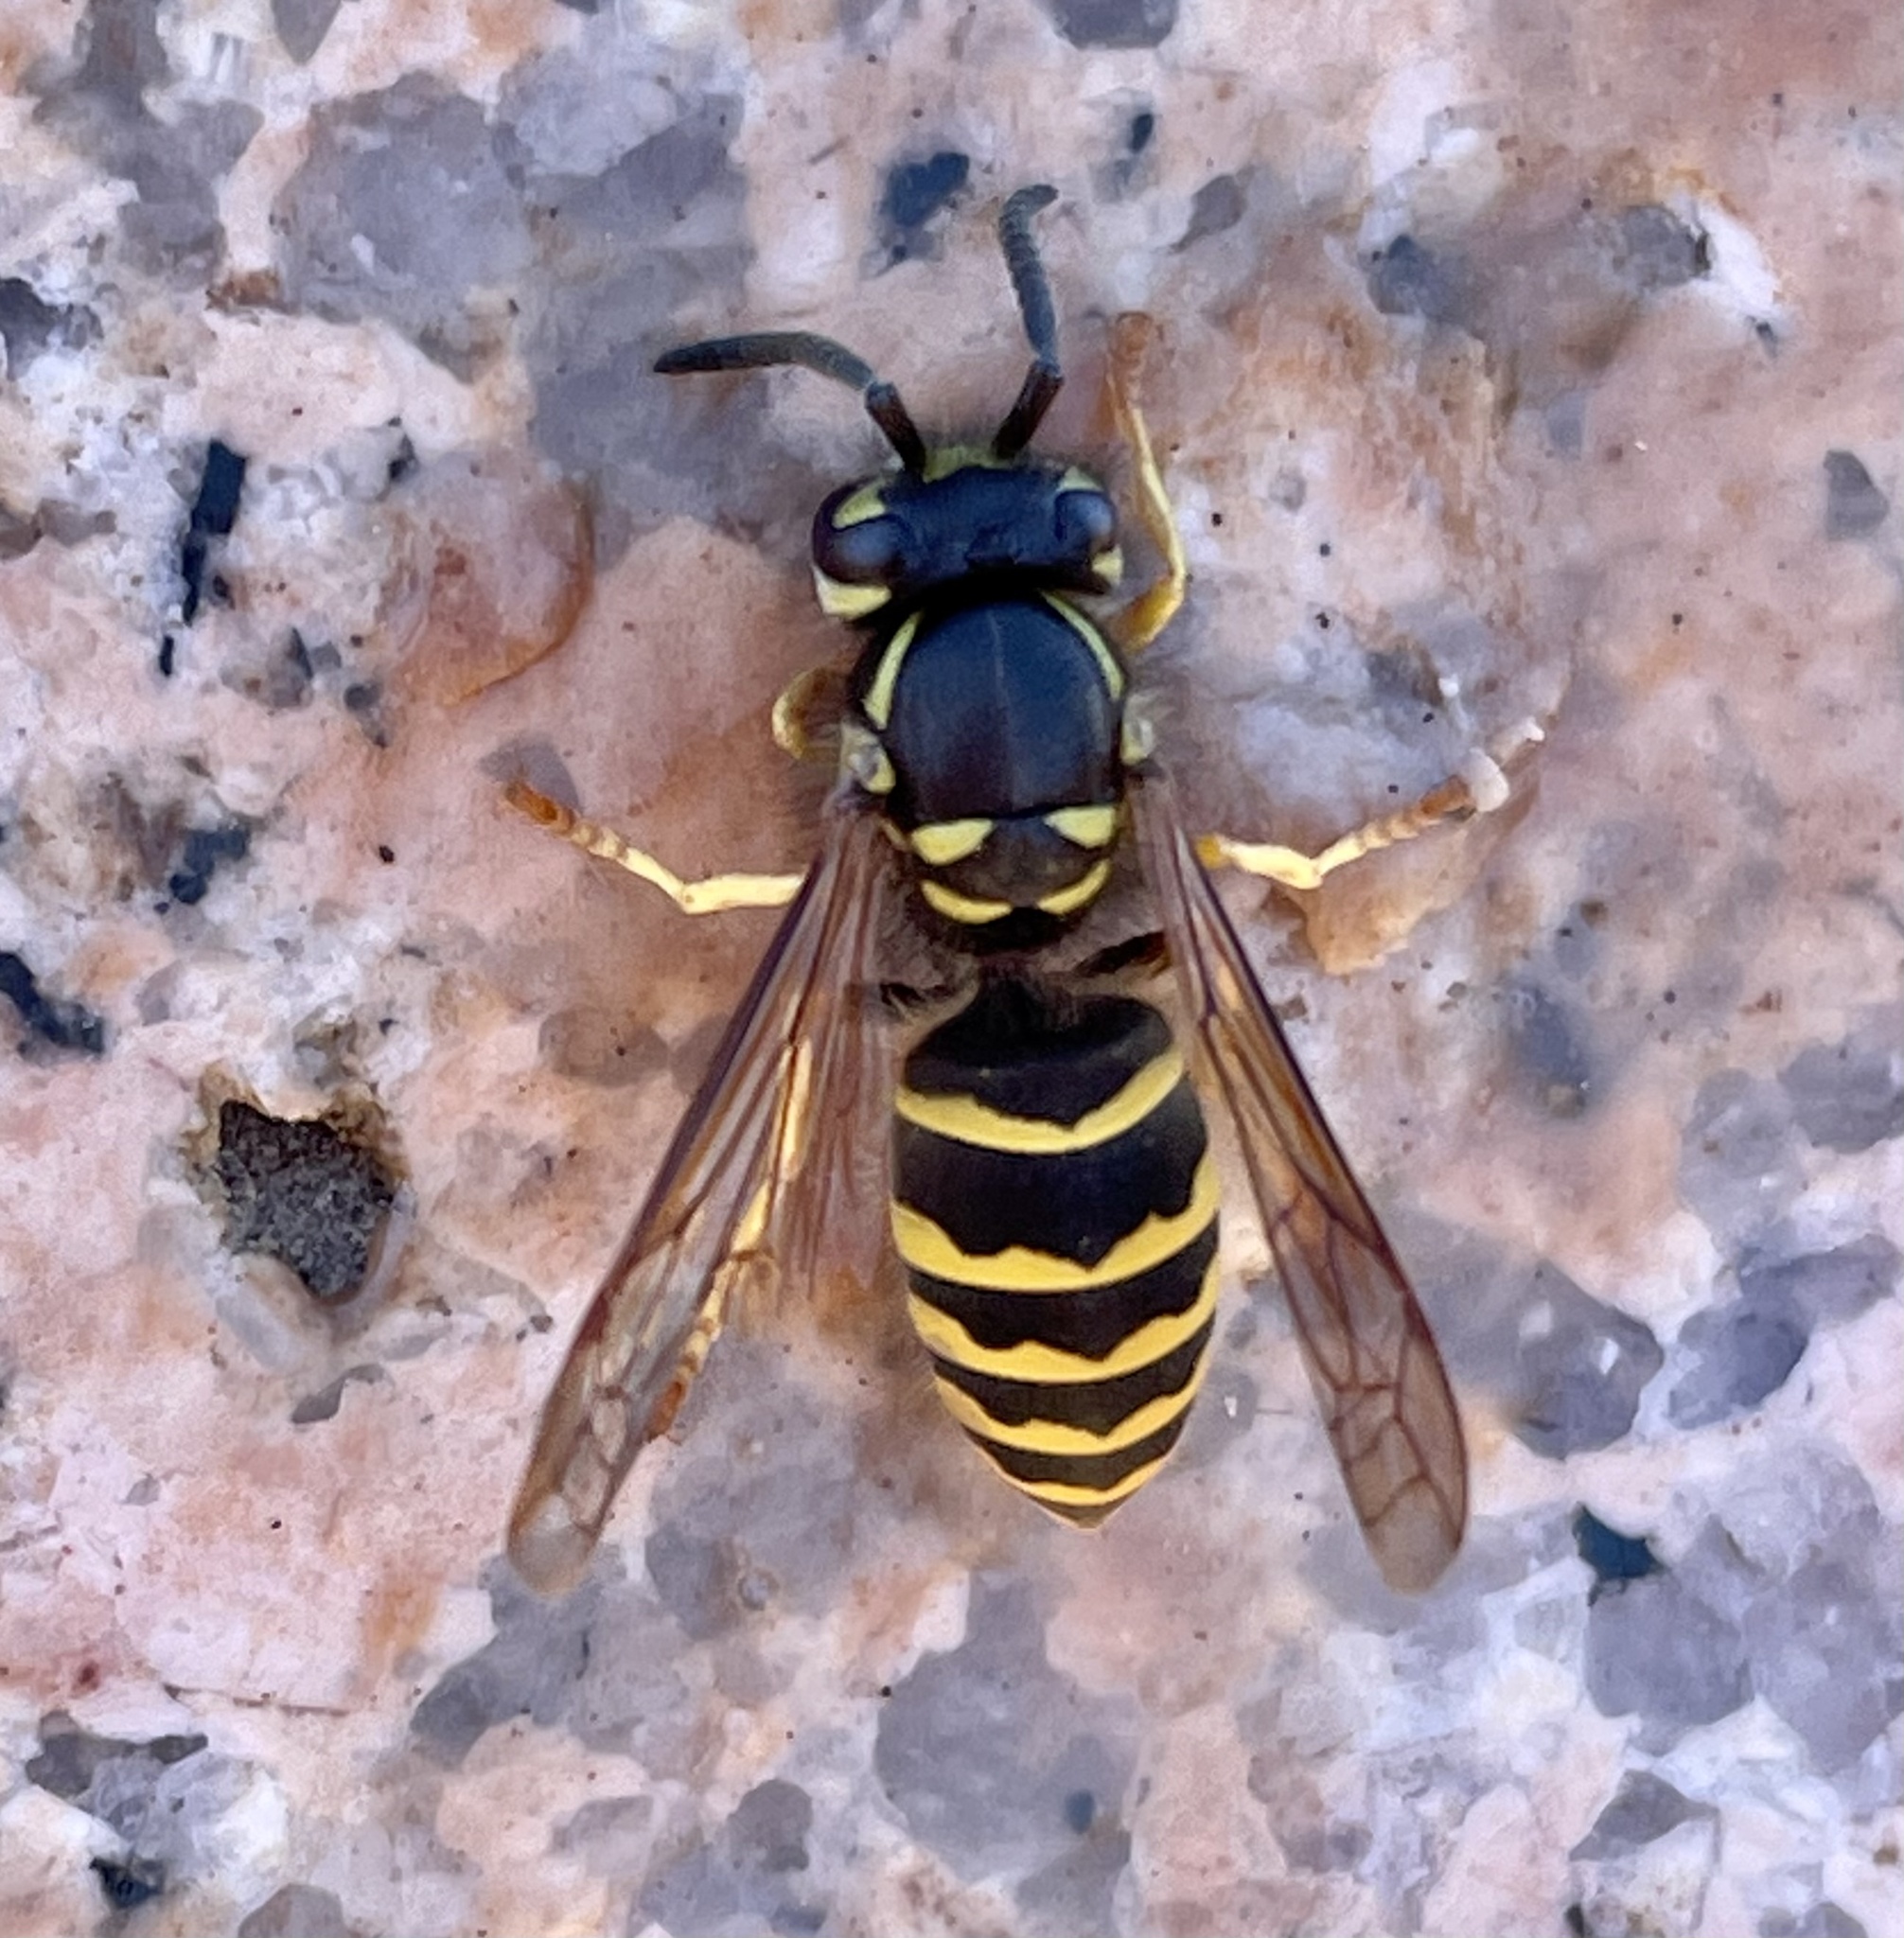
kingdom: Animalia
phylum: Arthropoda
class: Insecta
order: Hymenoptera
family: Vespidae
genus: Vespula
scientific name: Vespula alascensis
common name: Alaska yellowjacket
